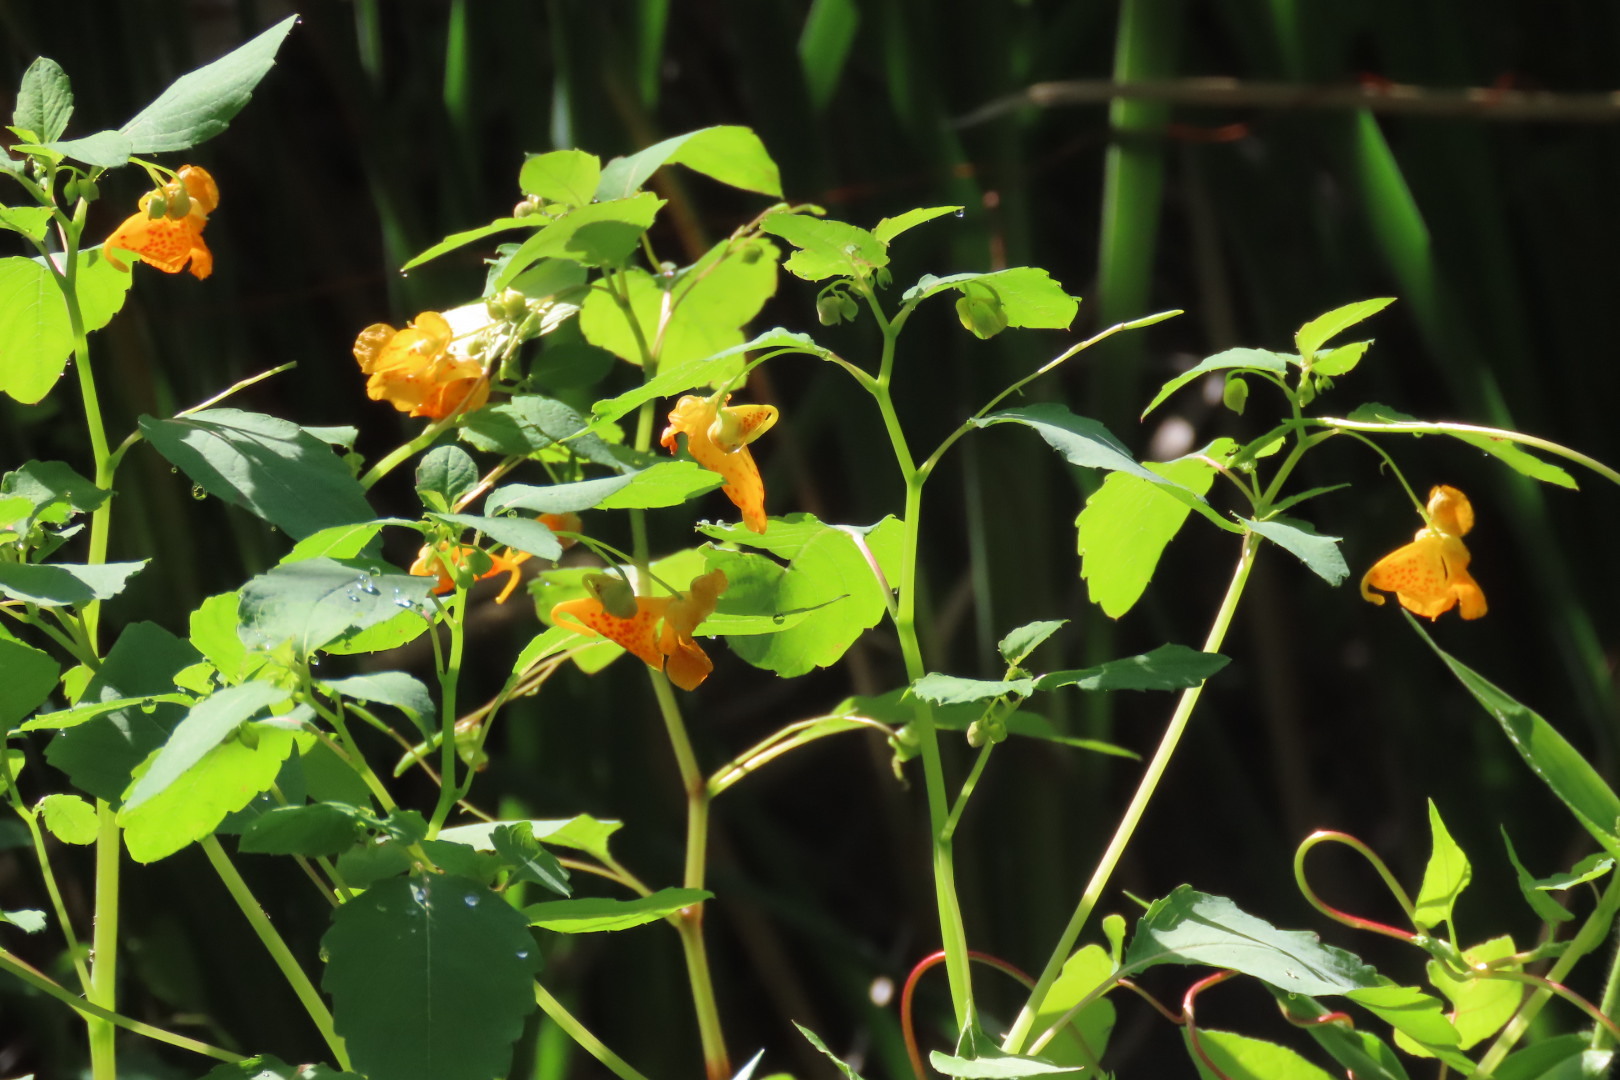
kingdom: Plantae
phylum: Tracheophyta
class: Magnoliopsida
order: Ericales
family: Balsaminaceae
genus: Impatiens
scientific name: Impatiens capensis
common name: Orange balsam
